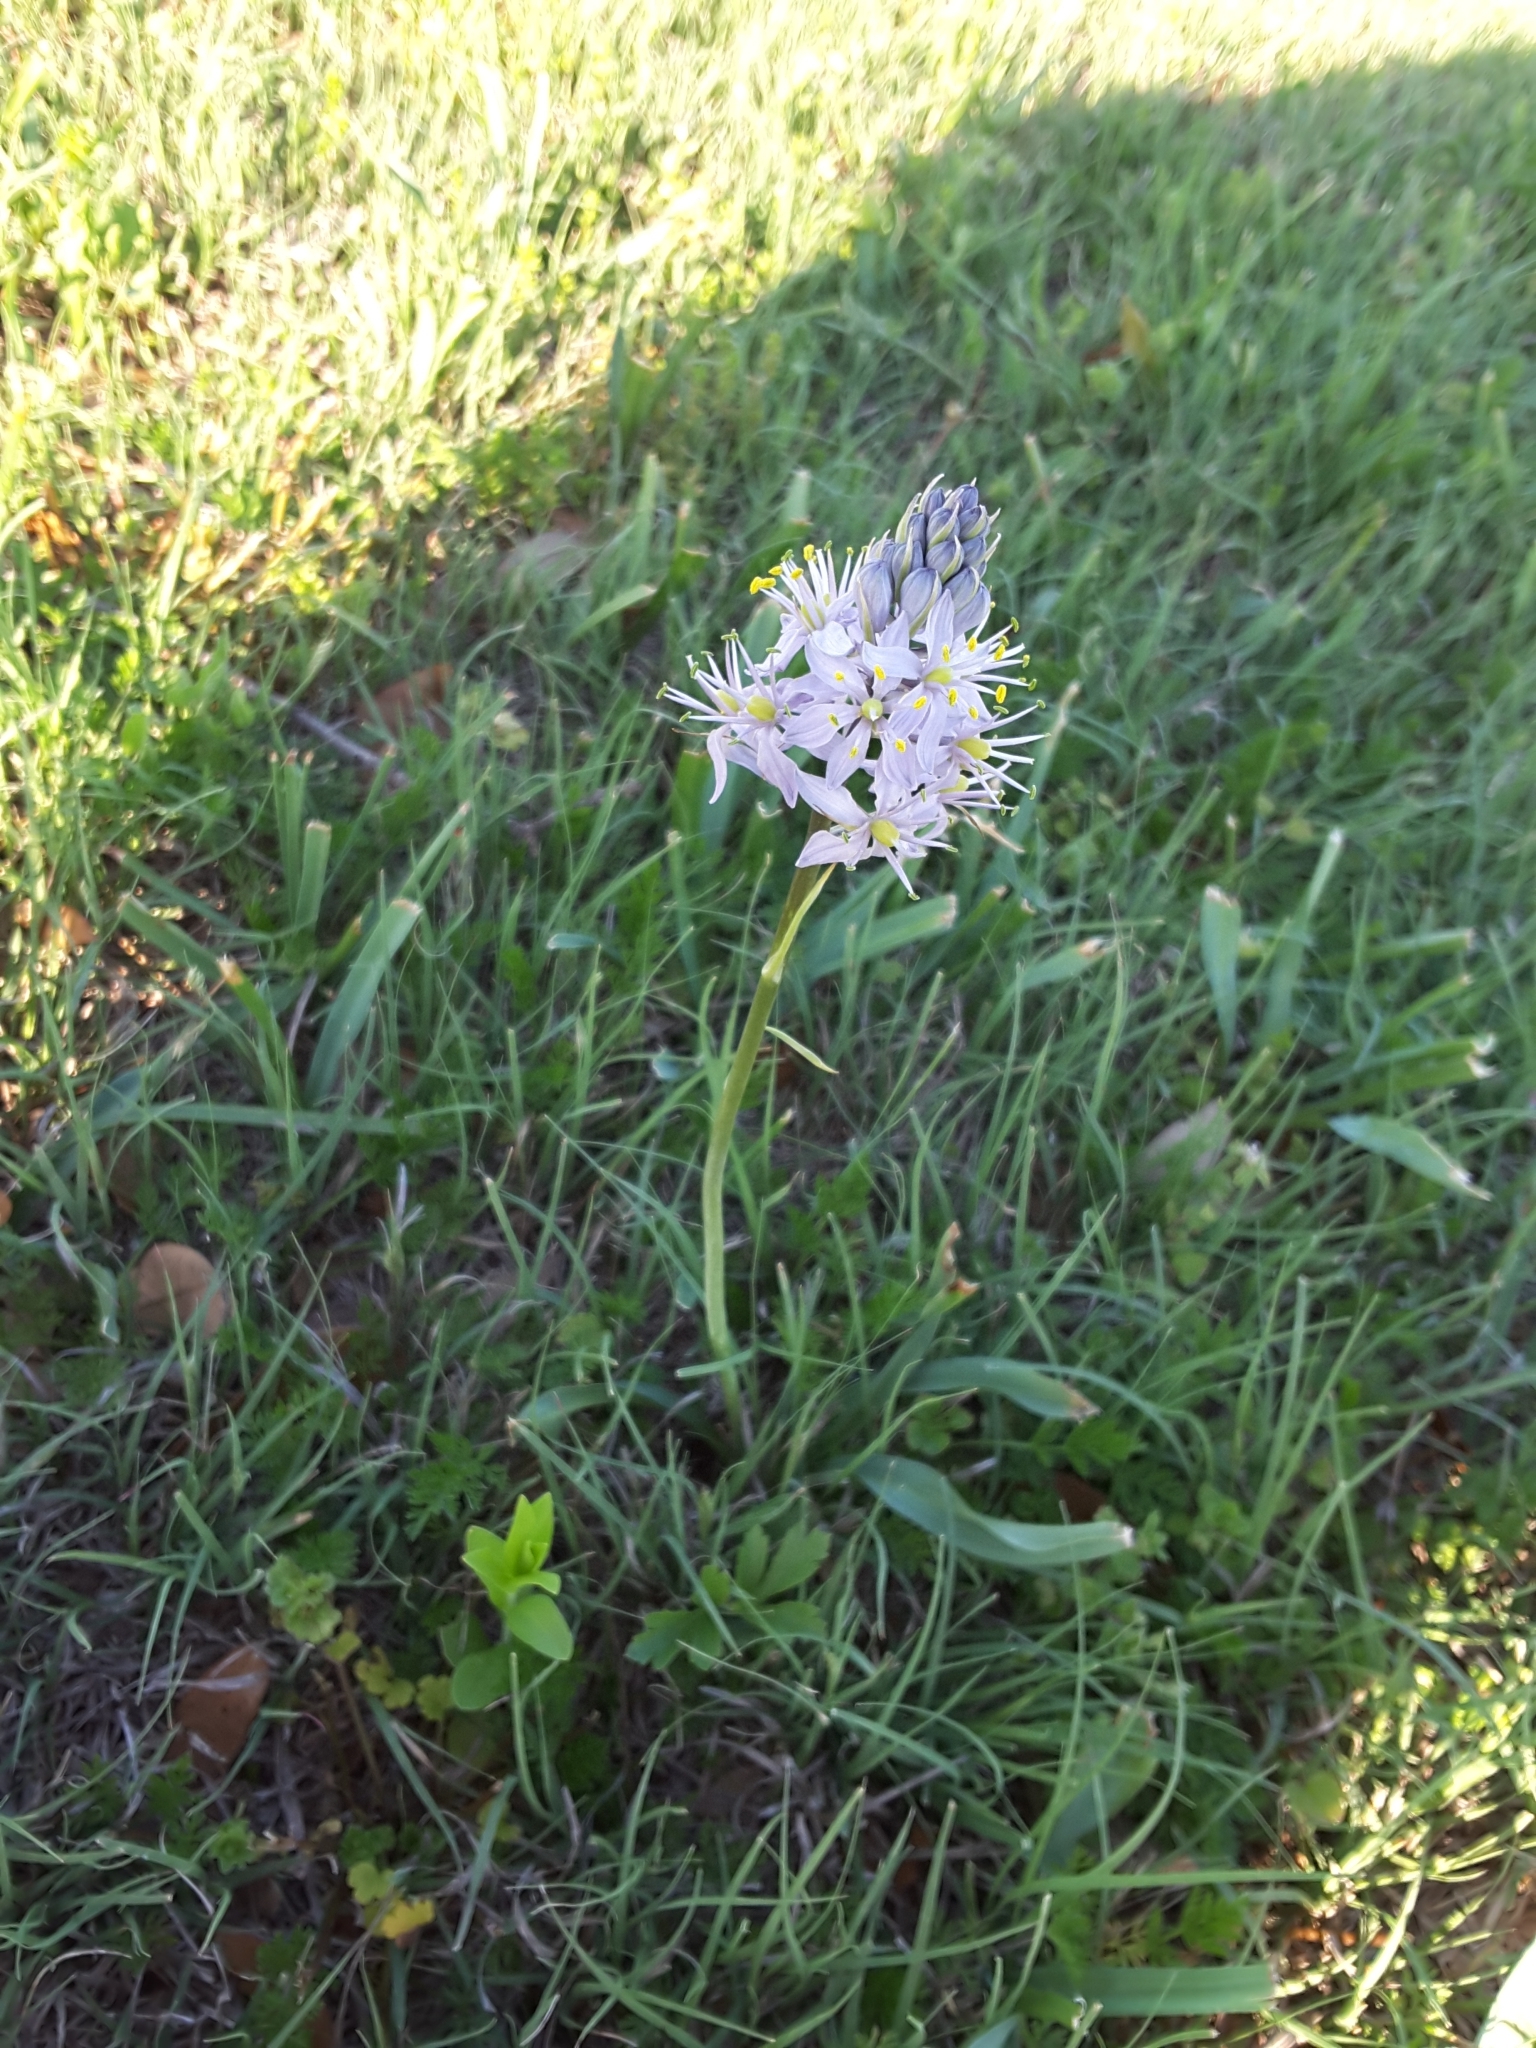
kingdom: Plantae
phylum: Tracheophyta
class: Liliopsida
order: Asparagales
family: Asparagaceae
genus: Camassia
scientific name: Camassia scilloides
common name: Wild hyacinth
